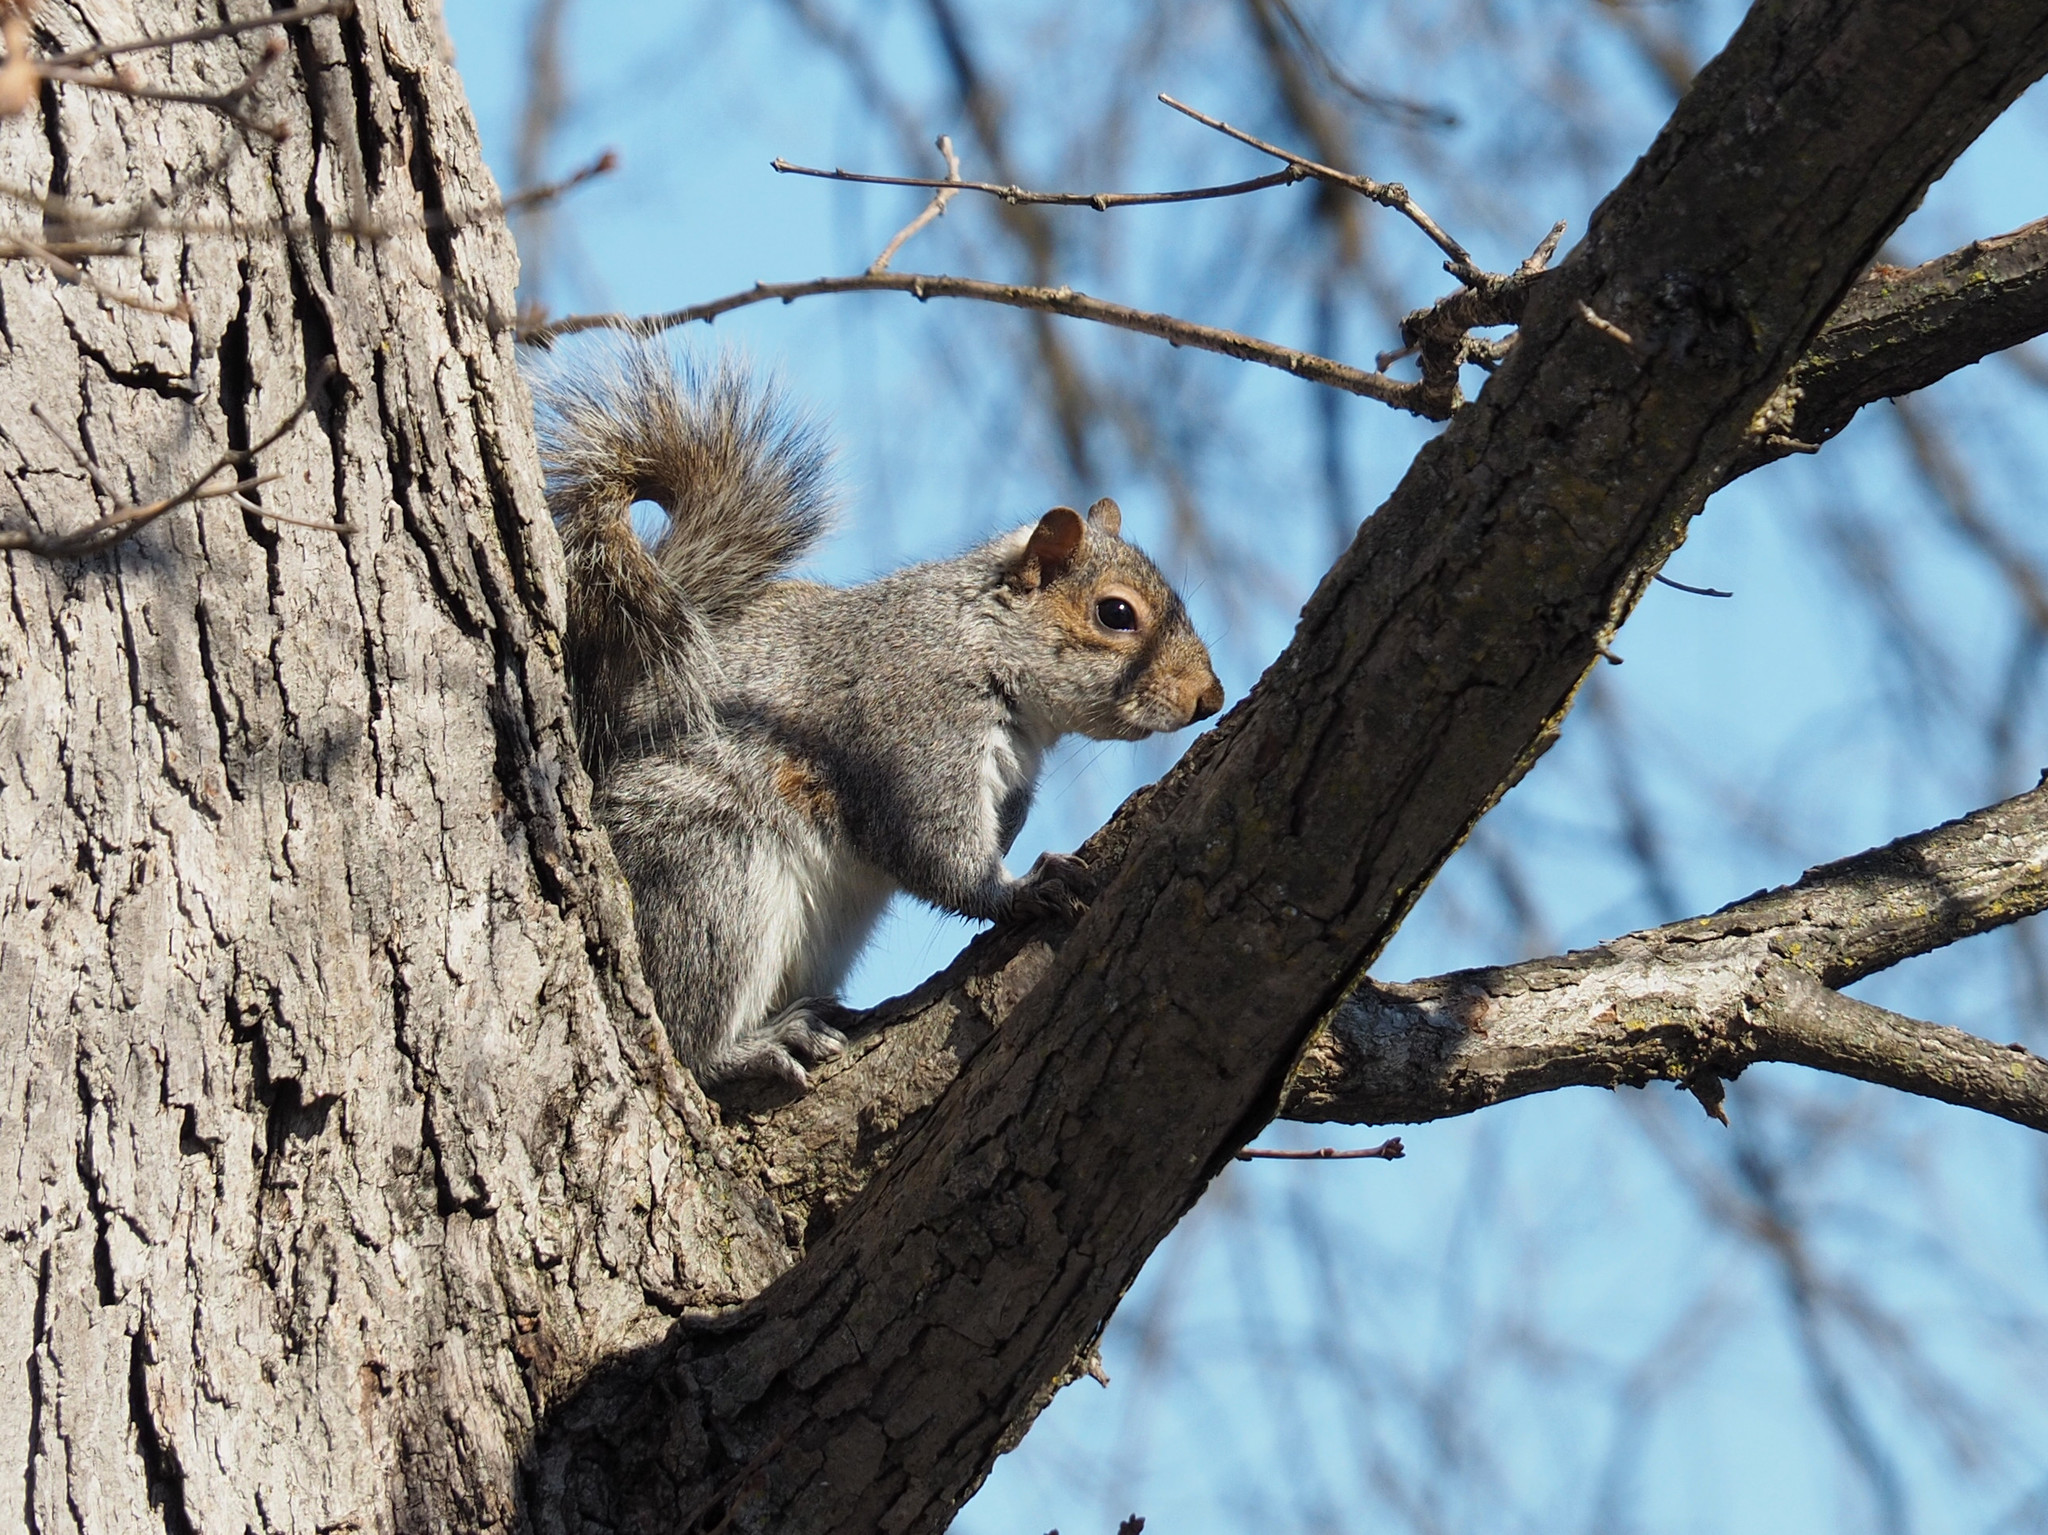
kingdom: Animalia
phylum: Chordata
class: Mammalia
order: Rodentia
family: Sciuridae
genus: Sciurus
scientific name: Sciurus carolinensis
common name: Eastern gray squirrel
